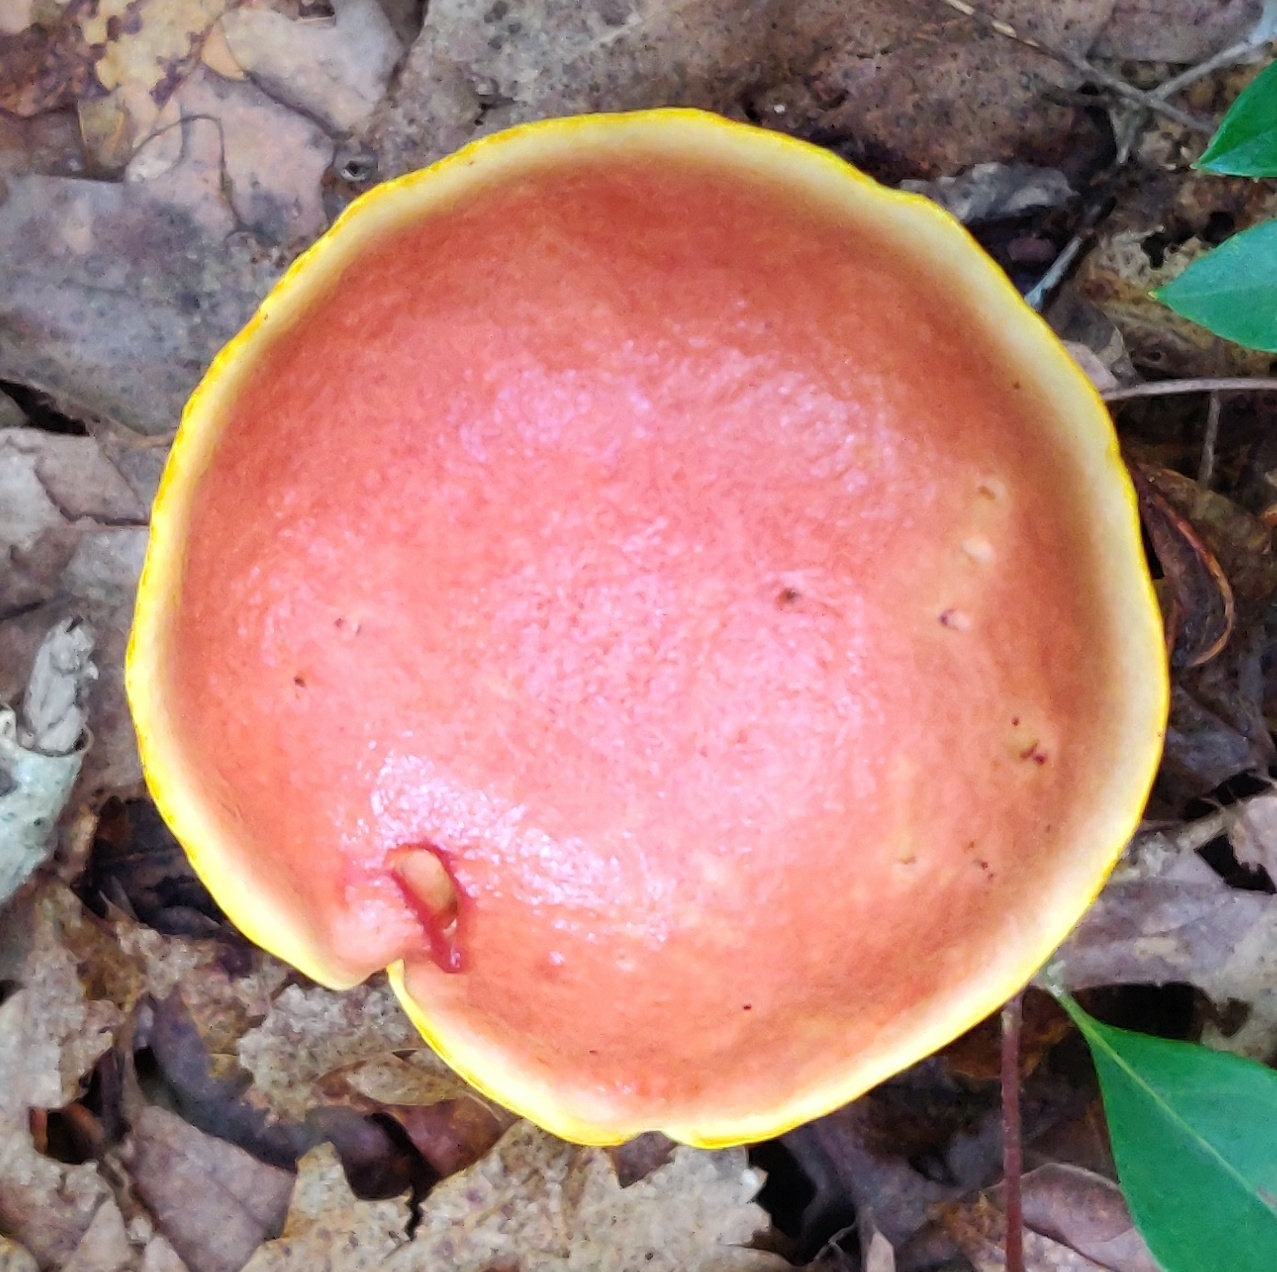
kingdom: Fungi
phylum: Basidiomycota
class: Agaricomycetes
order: Boletales
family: Boletaceae
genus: Aureoboletus
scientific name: Aureoboletus betula
